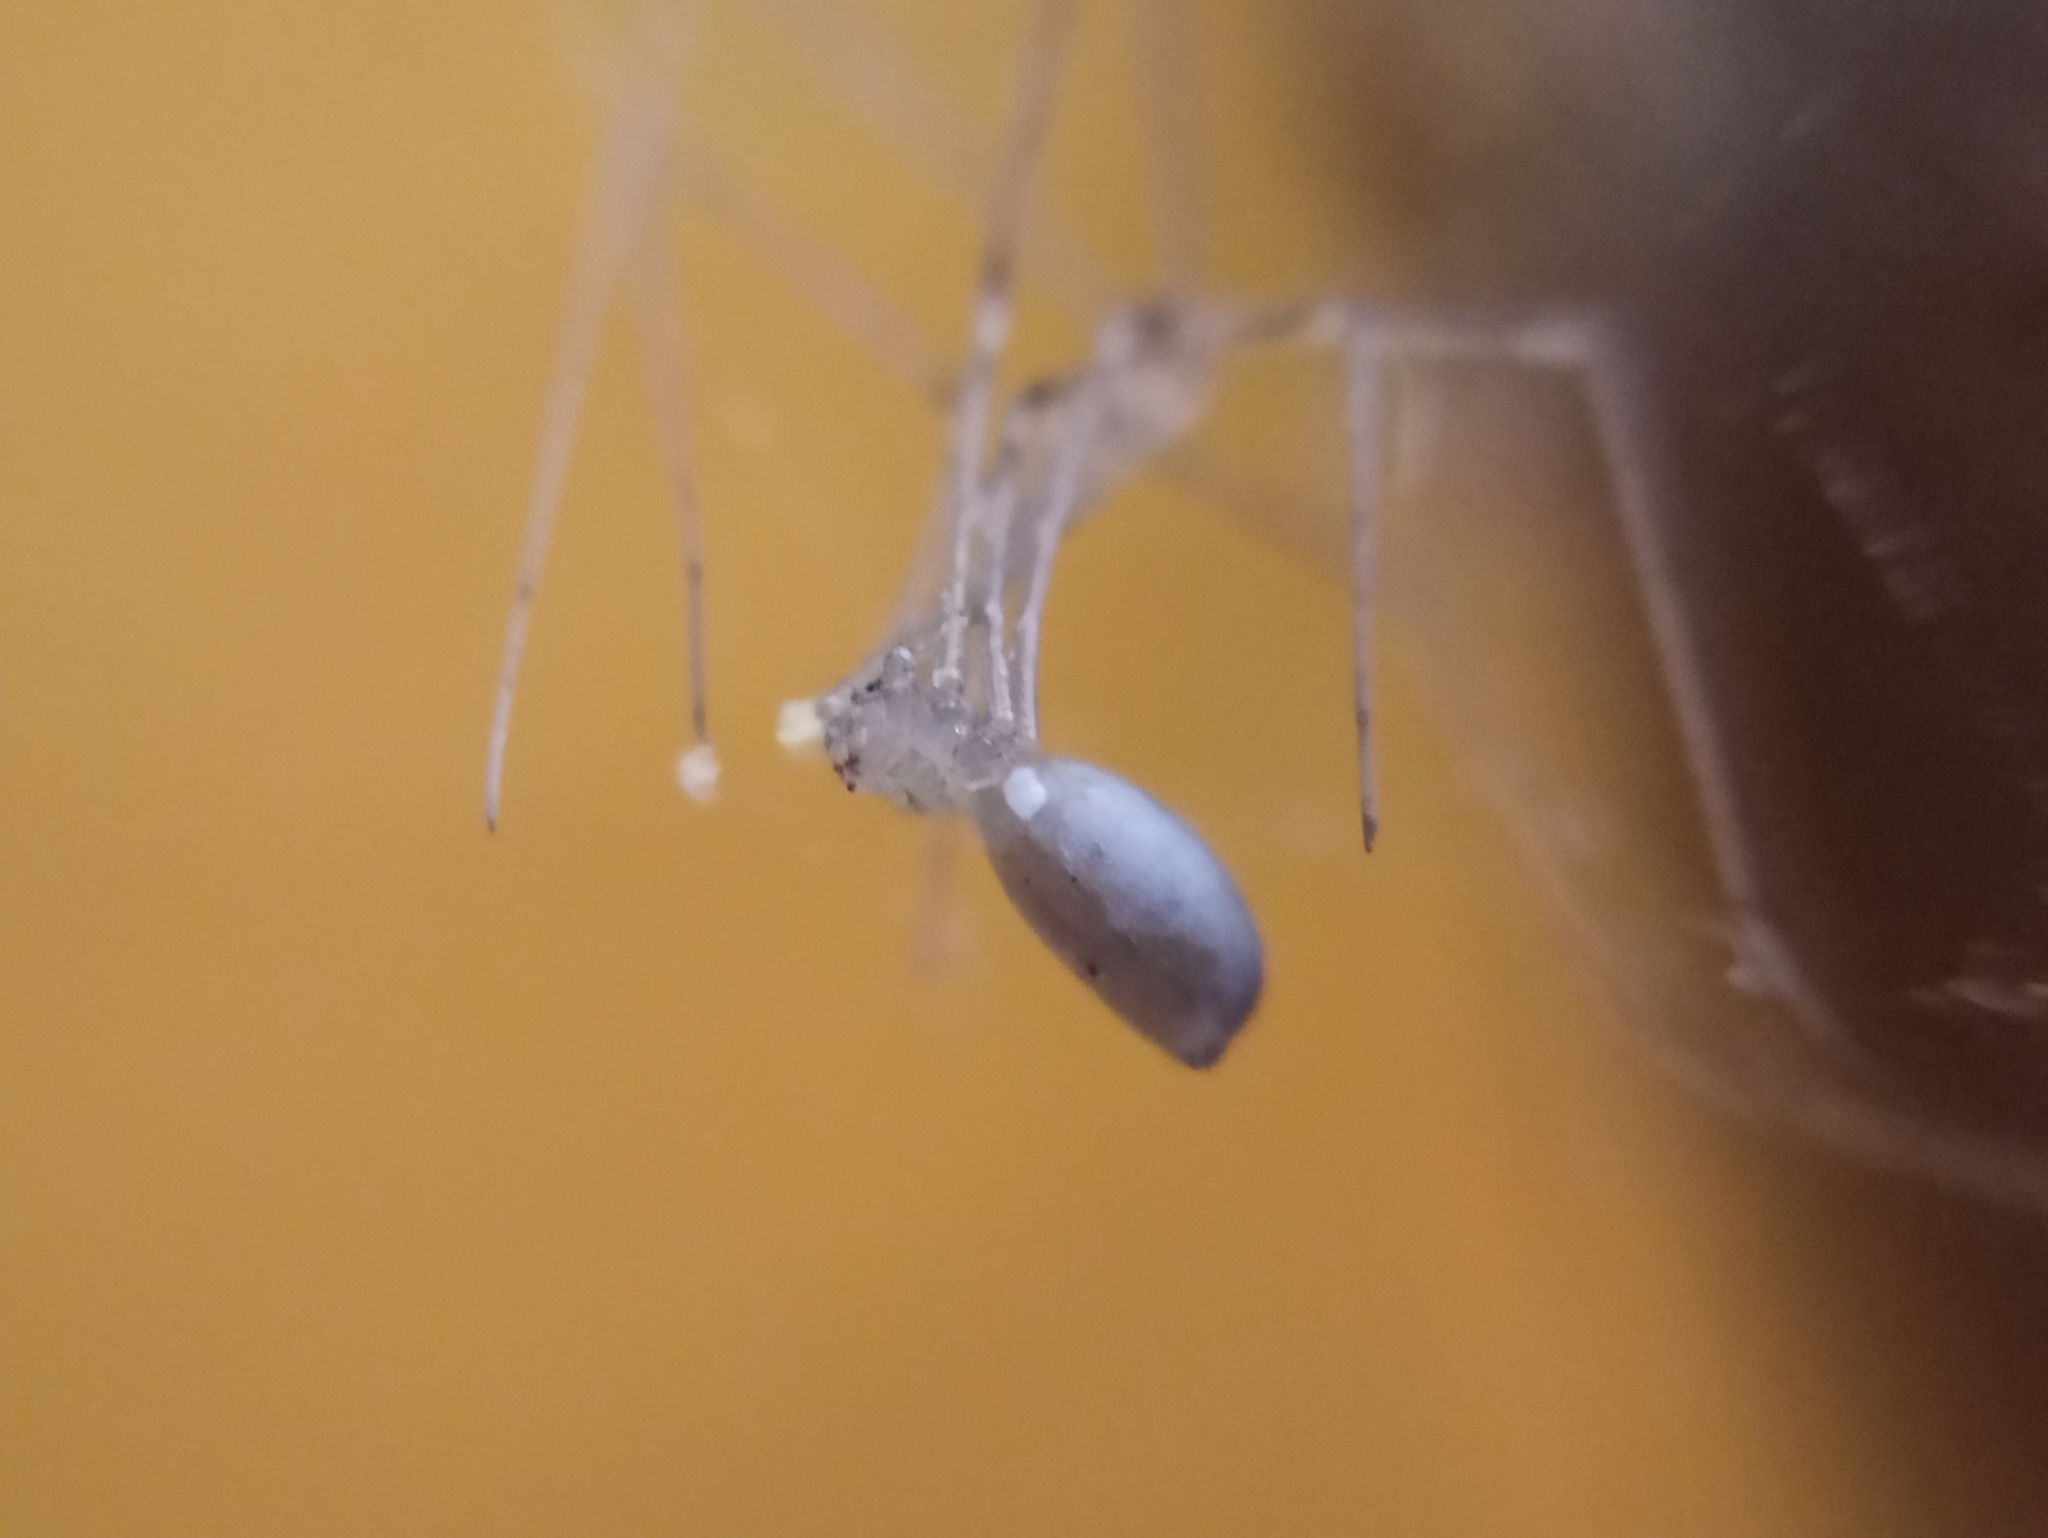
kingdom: Animalia
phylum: Arthropoda
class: Arachnida
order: Araneae
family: Pholcidae
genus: Pholcus
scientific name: Pholcus phalangioides
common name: Longbodied cellar spider
